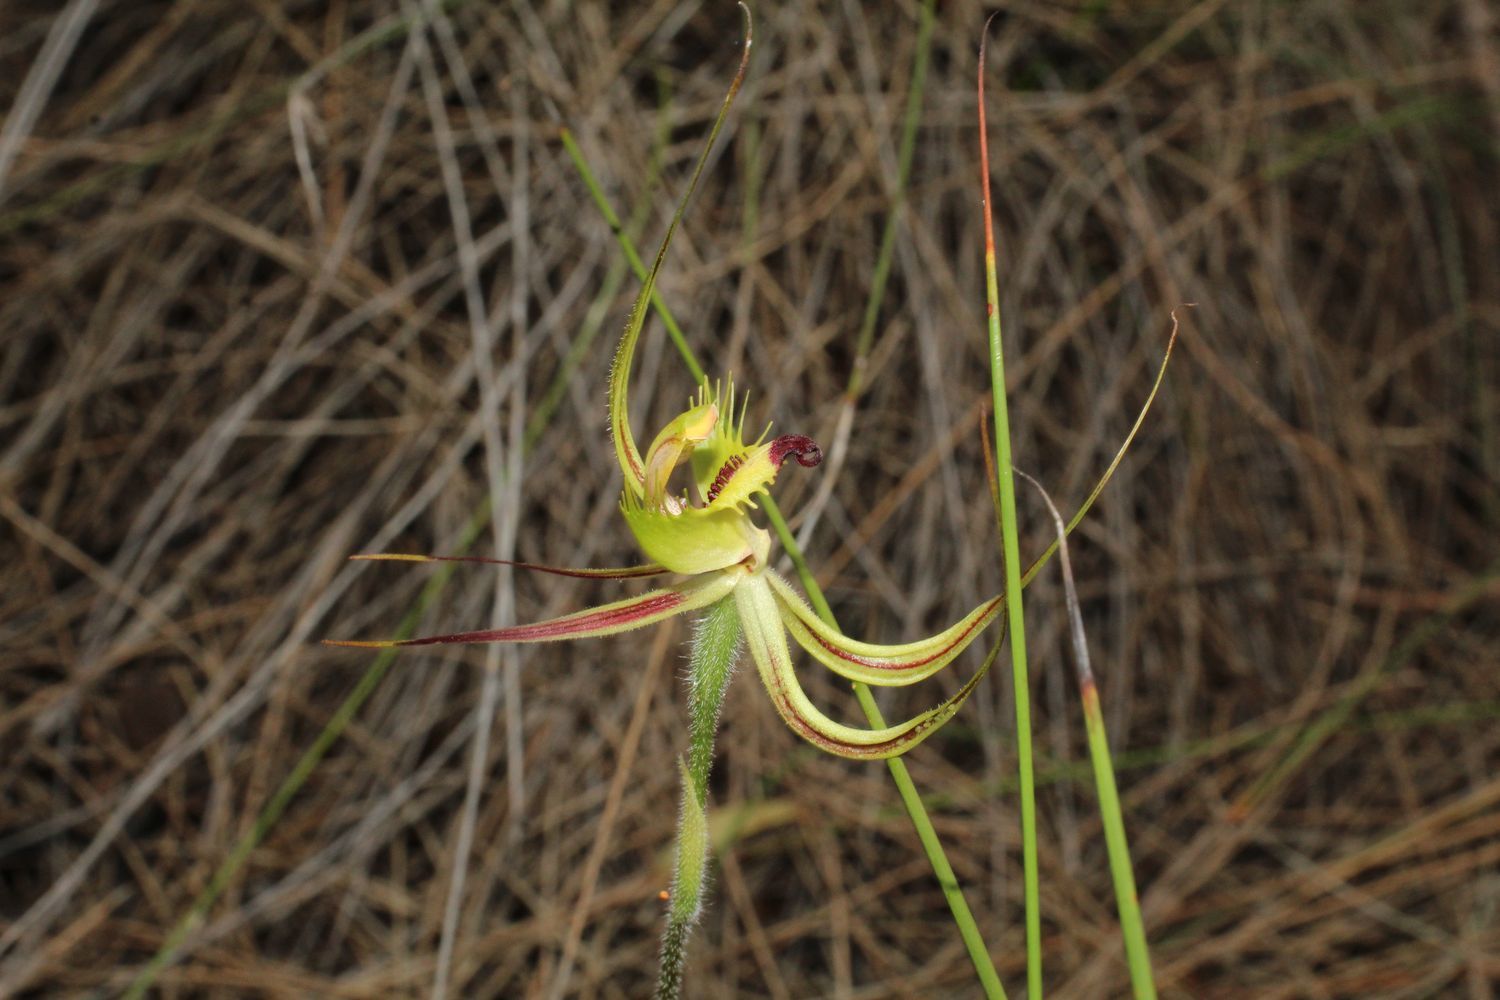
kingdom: Plantae
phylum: Tracheophyta
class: Liliopsida
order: Asparagales
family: Orchidaceae
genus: Caladenia
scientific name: Caladenia falcata
